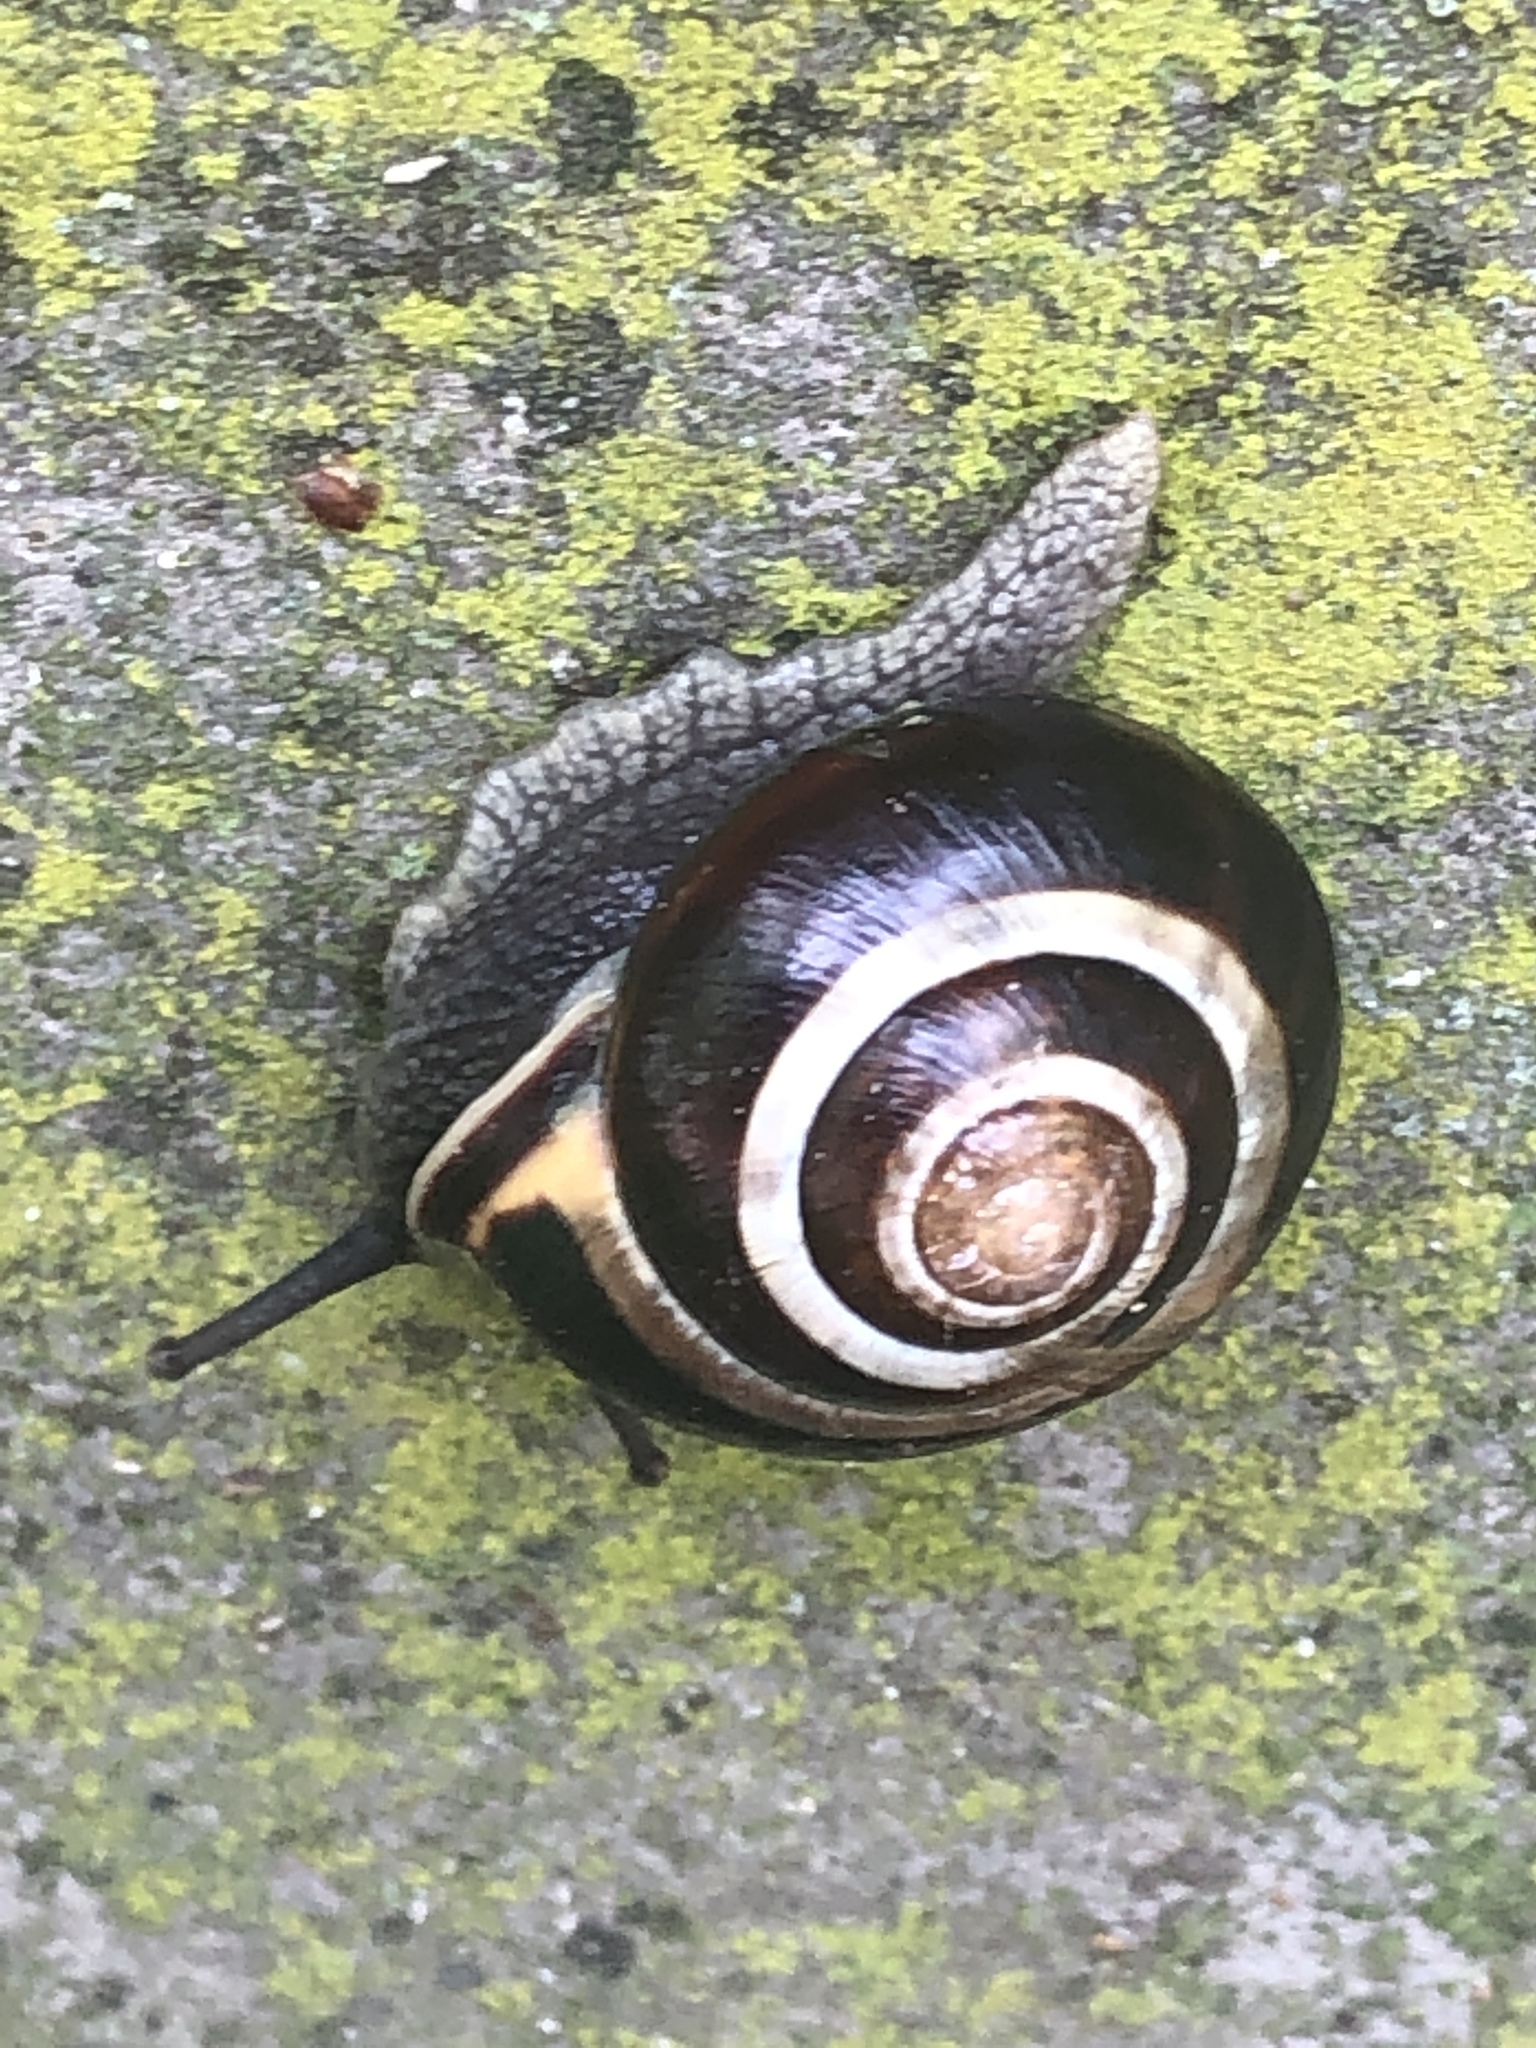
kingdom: Animalia
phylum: Mollusca
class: Gastropoda
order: Stylommatophora
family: Helicidae
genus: Cepaea
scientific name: Cepaea nemoralis
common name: Grovesnail
